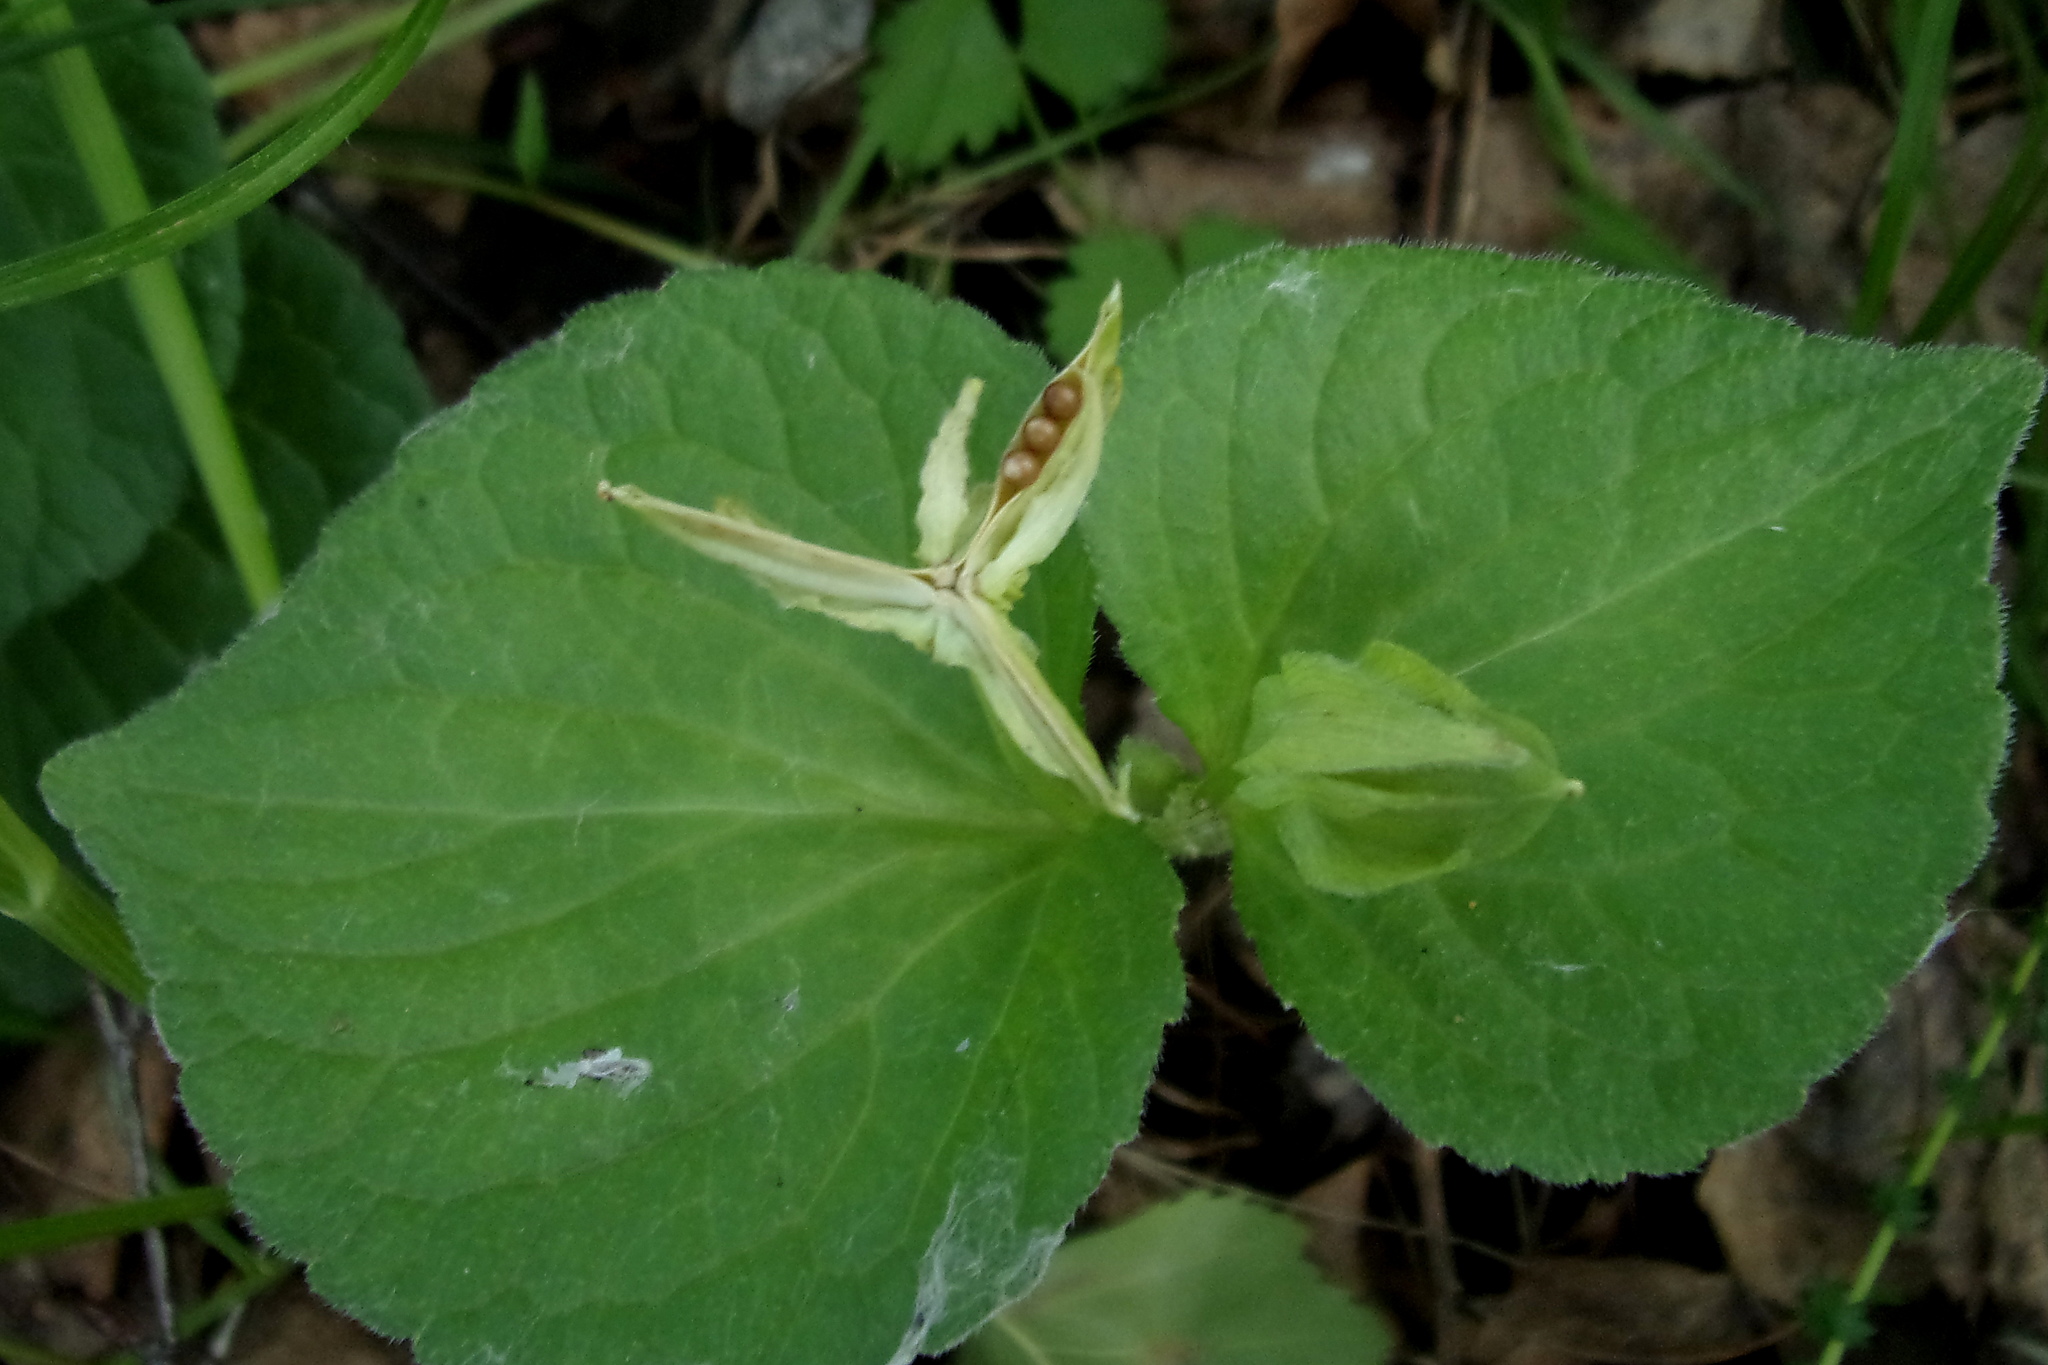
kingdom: Plantae
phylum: Tracheophyta
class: Magnoliopsida
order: Malpighiales
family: Violaceae
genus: Viola
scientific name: Viola mirabilis
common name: Wonder violet
